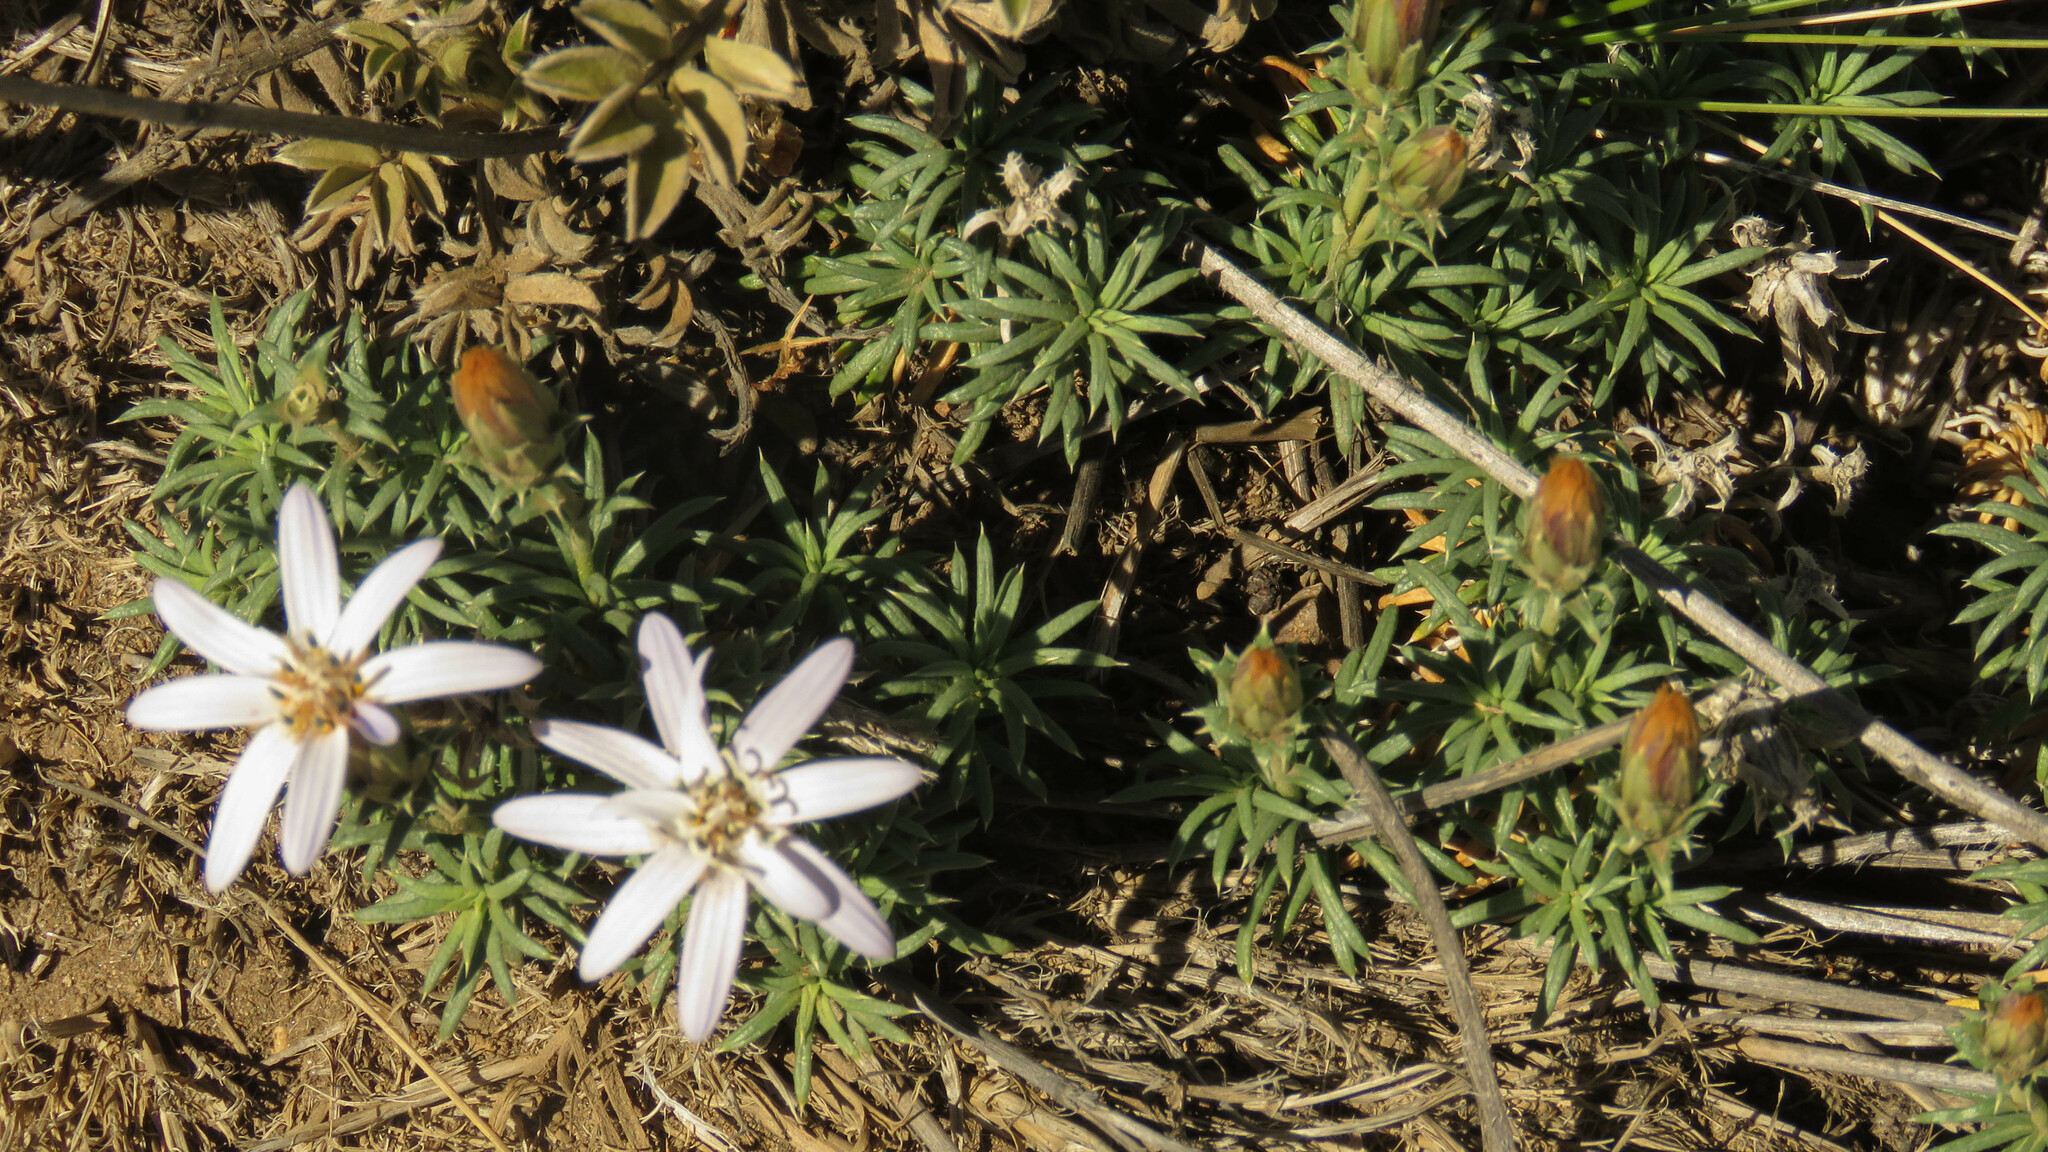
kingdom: Plantae
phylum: Tracheophyta
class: Magnoliopsida
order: Asterales
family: Asteraceae
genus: Perezia
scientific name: Perezia recurvata
